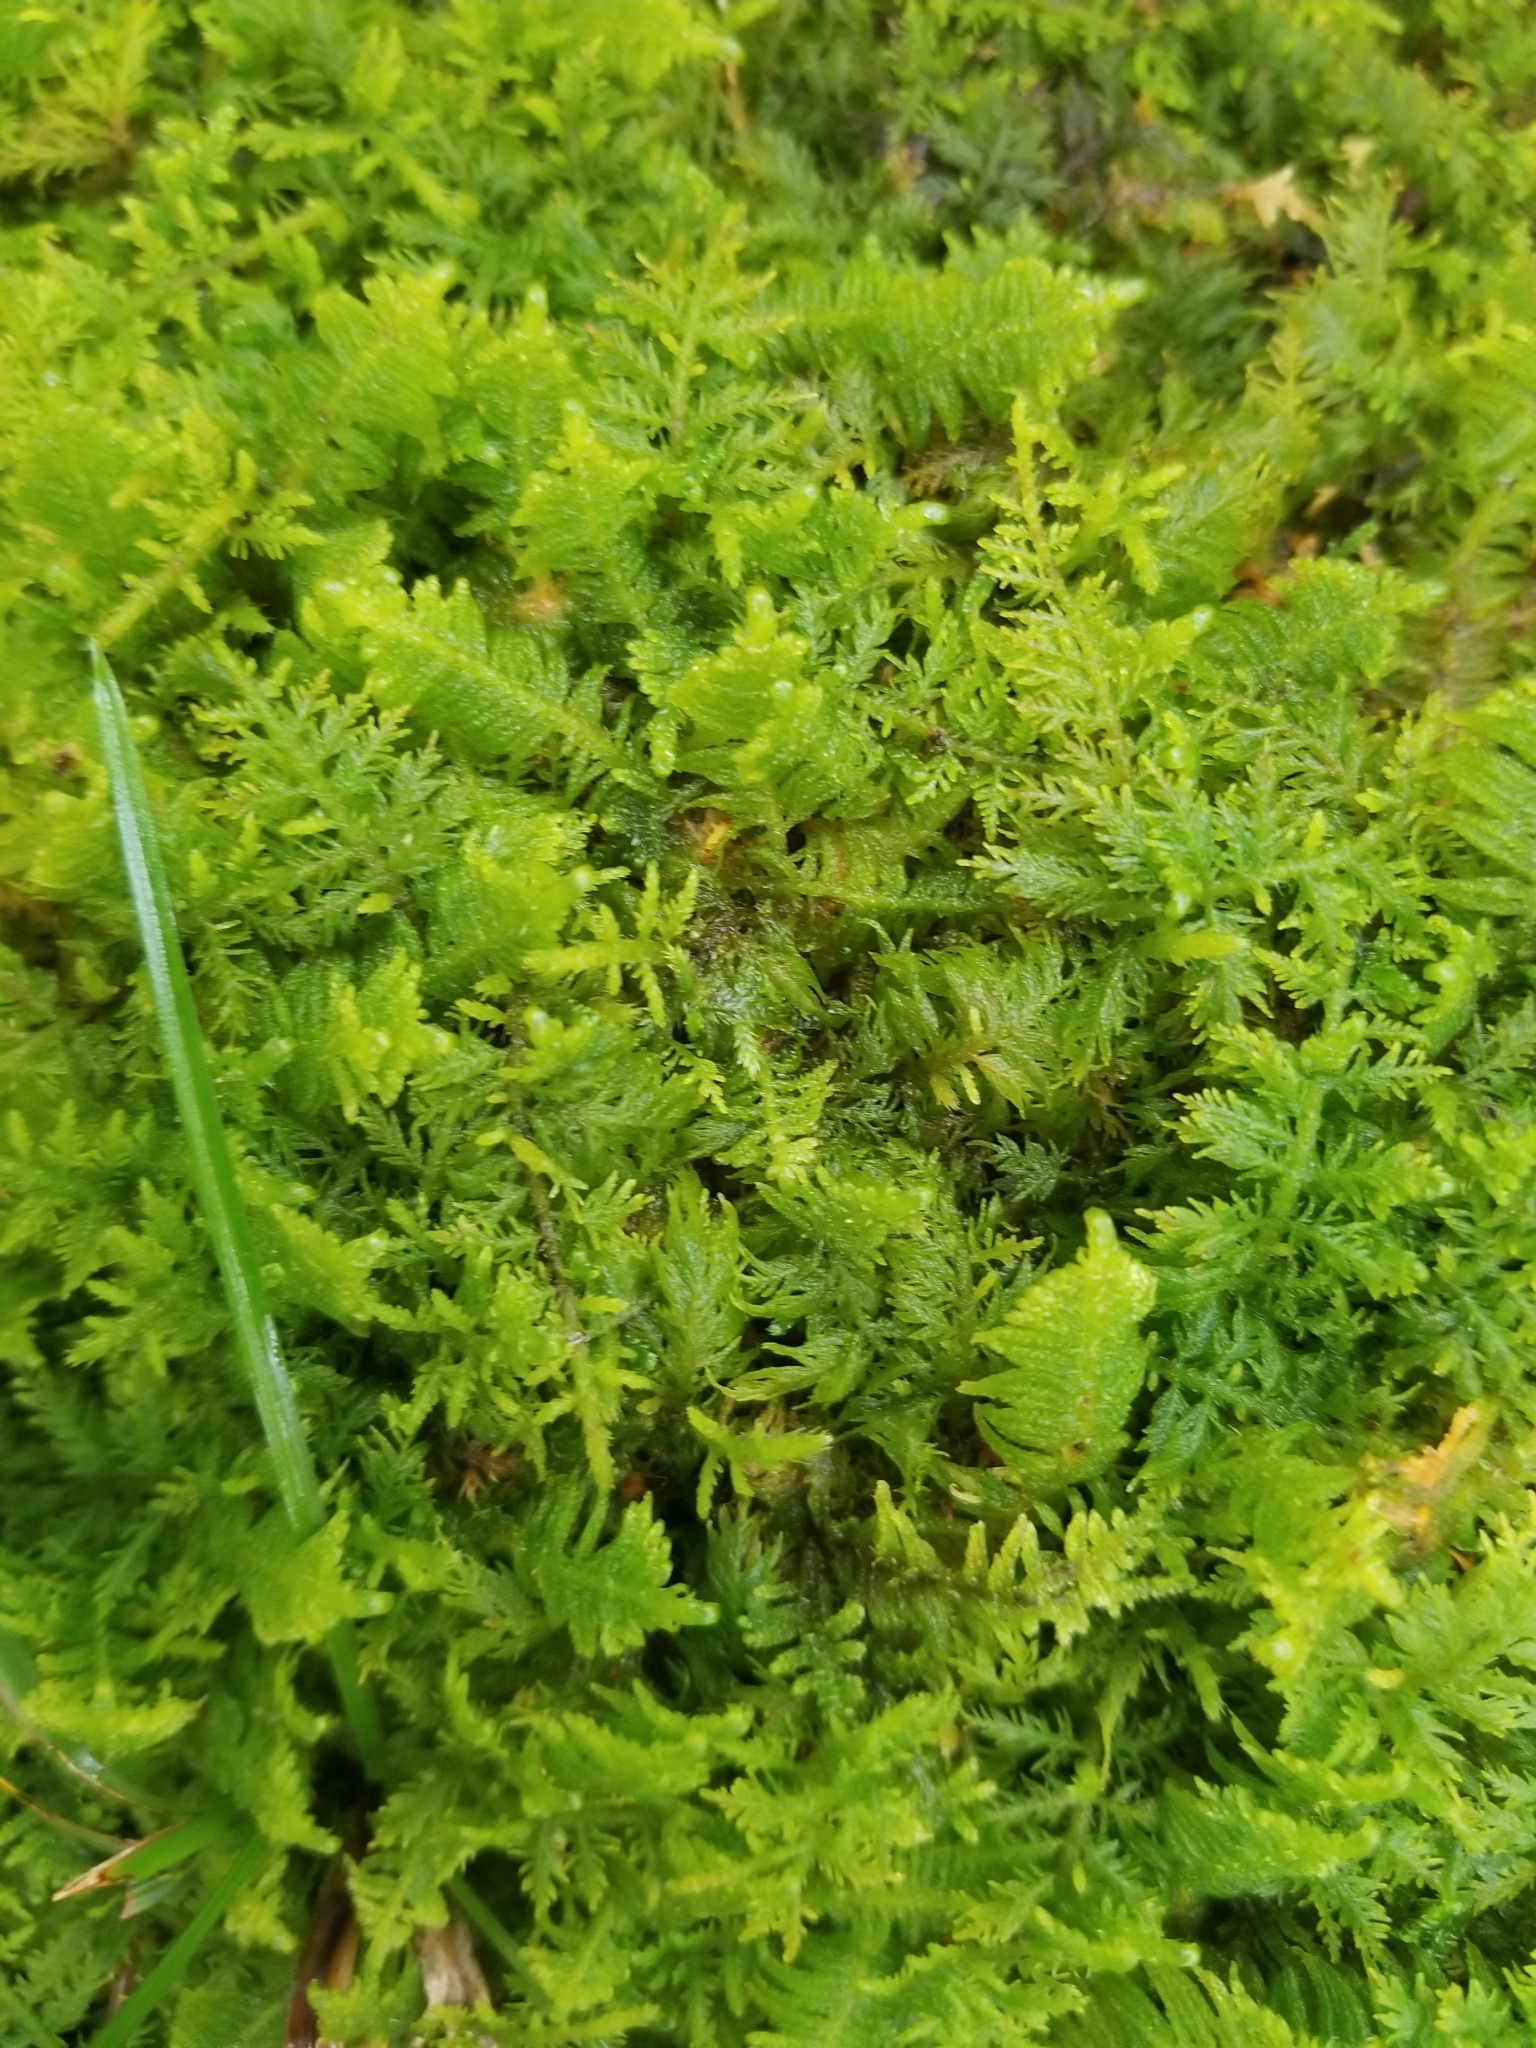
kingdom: Plantae
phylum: Bryophyta
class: Bryopsida
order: Hypnales
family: Pylaisiaceae
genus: Ptilium
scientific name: Ptilium crista-castrensis
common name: Knight's plume moss
